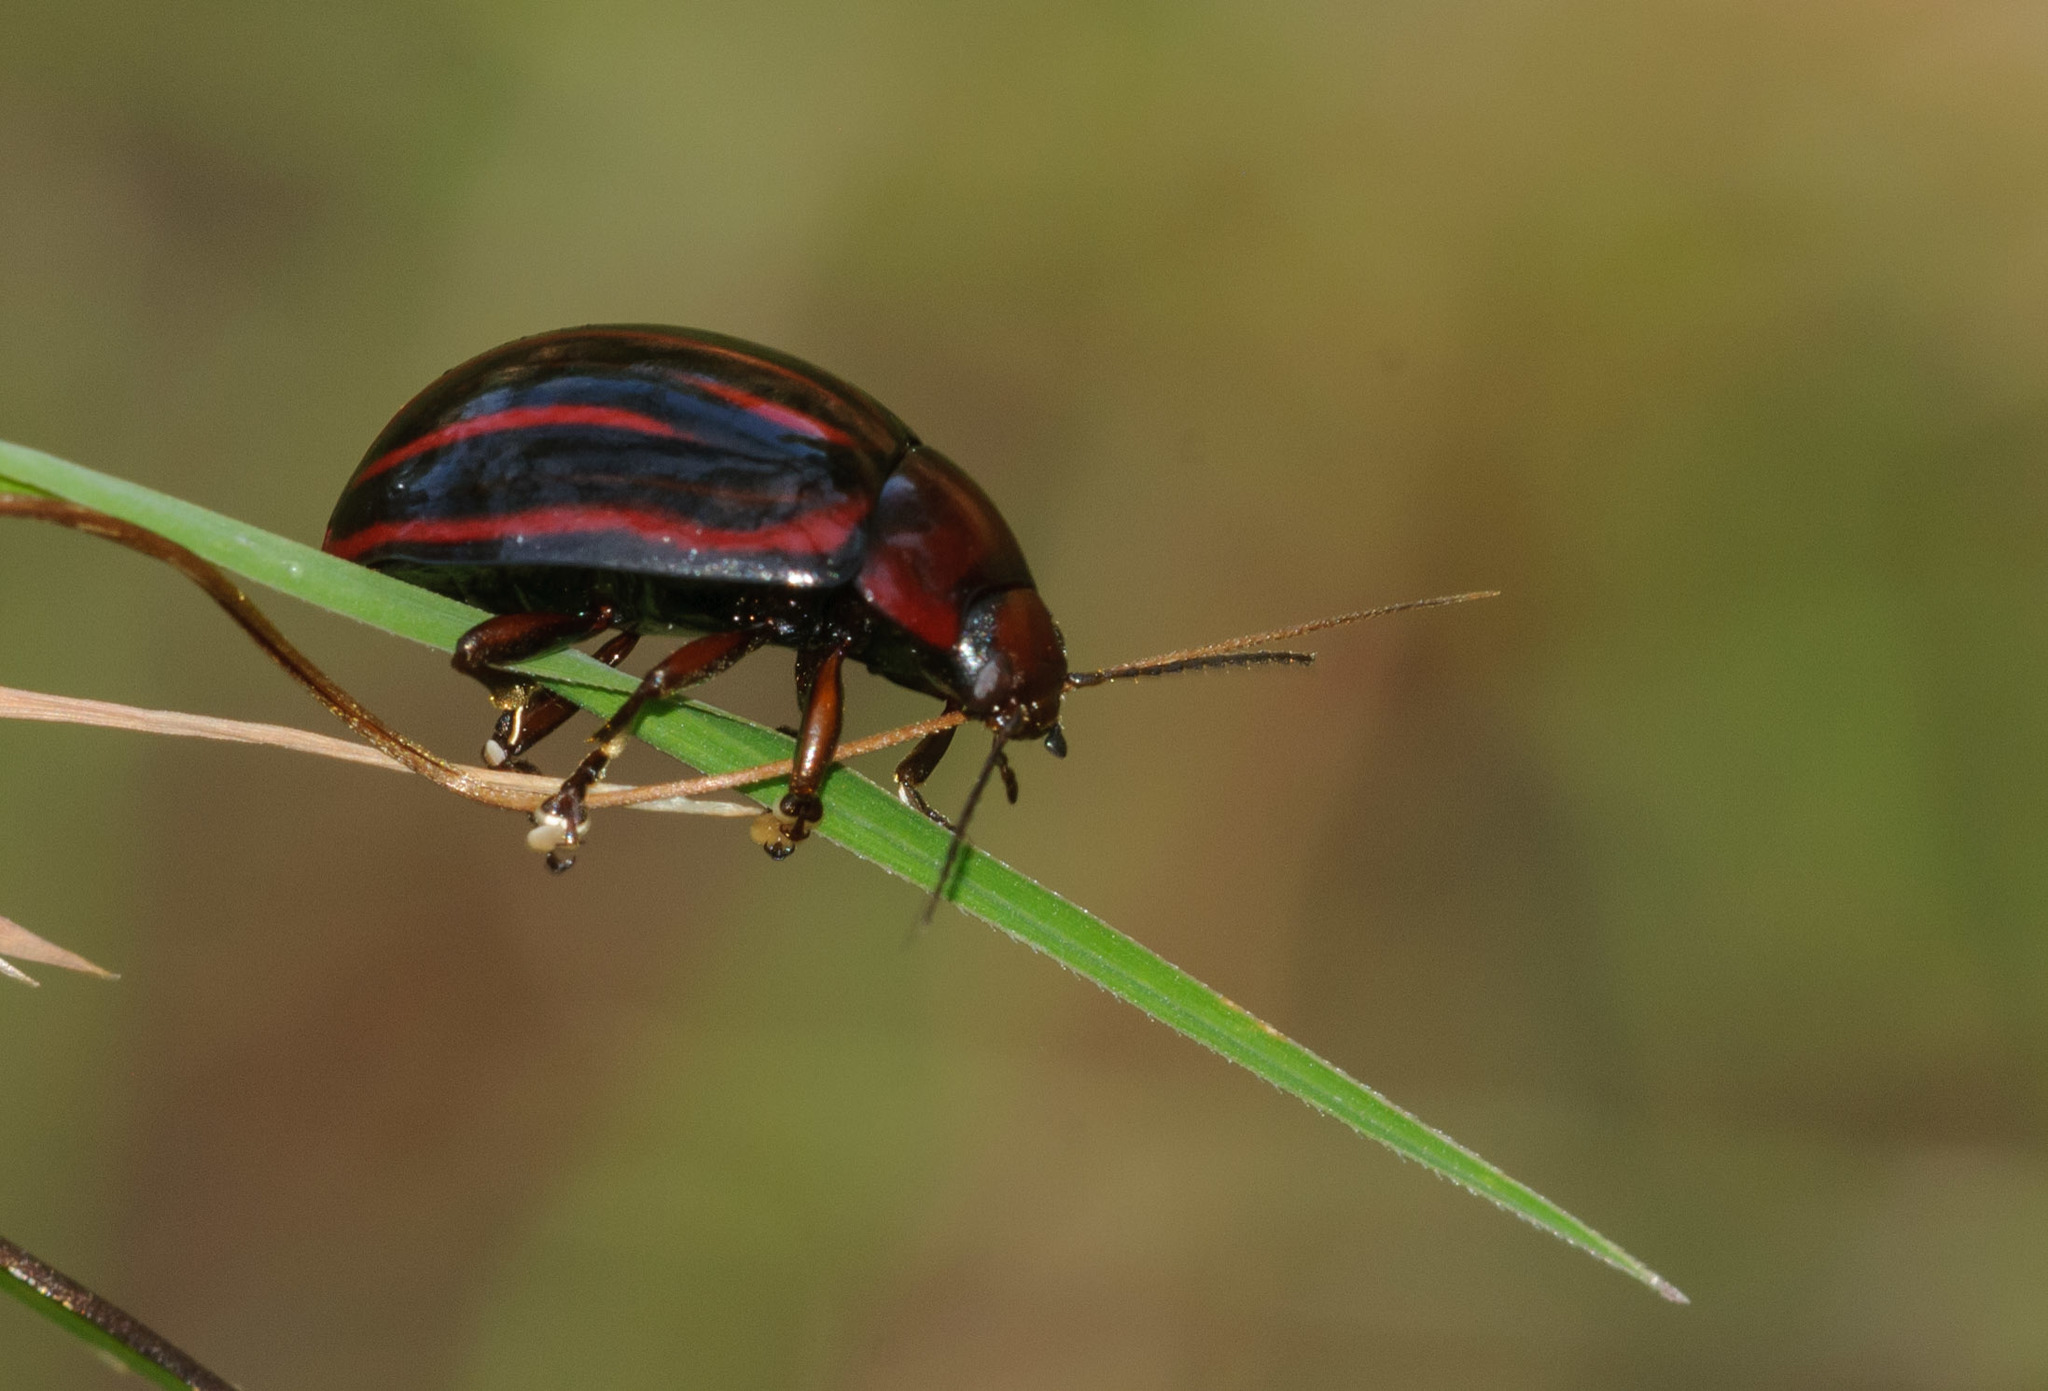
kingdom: Animalia
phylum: Arthropoda
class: Insecta
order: Coleoptera
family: Chrysomelidae
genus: Paropsisterna
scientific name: Paropsisterna
